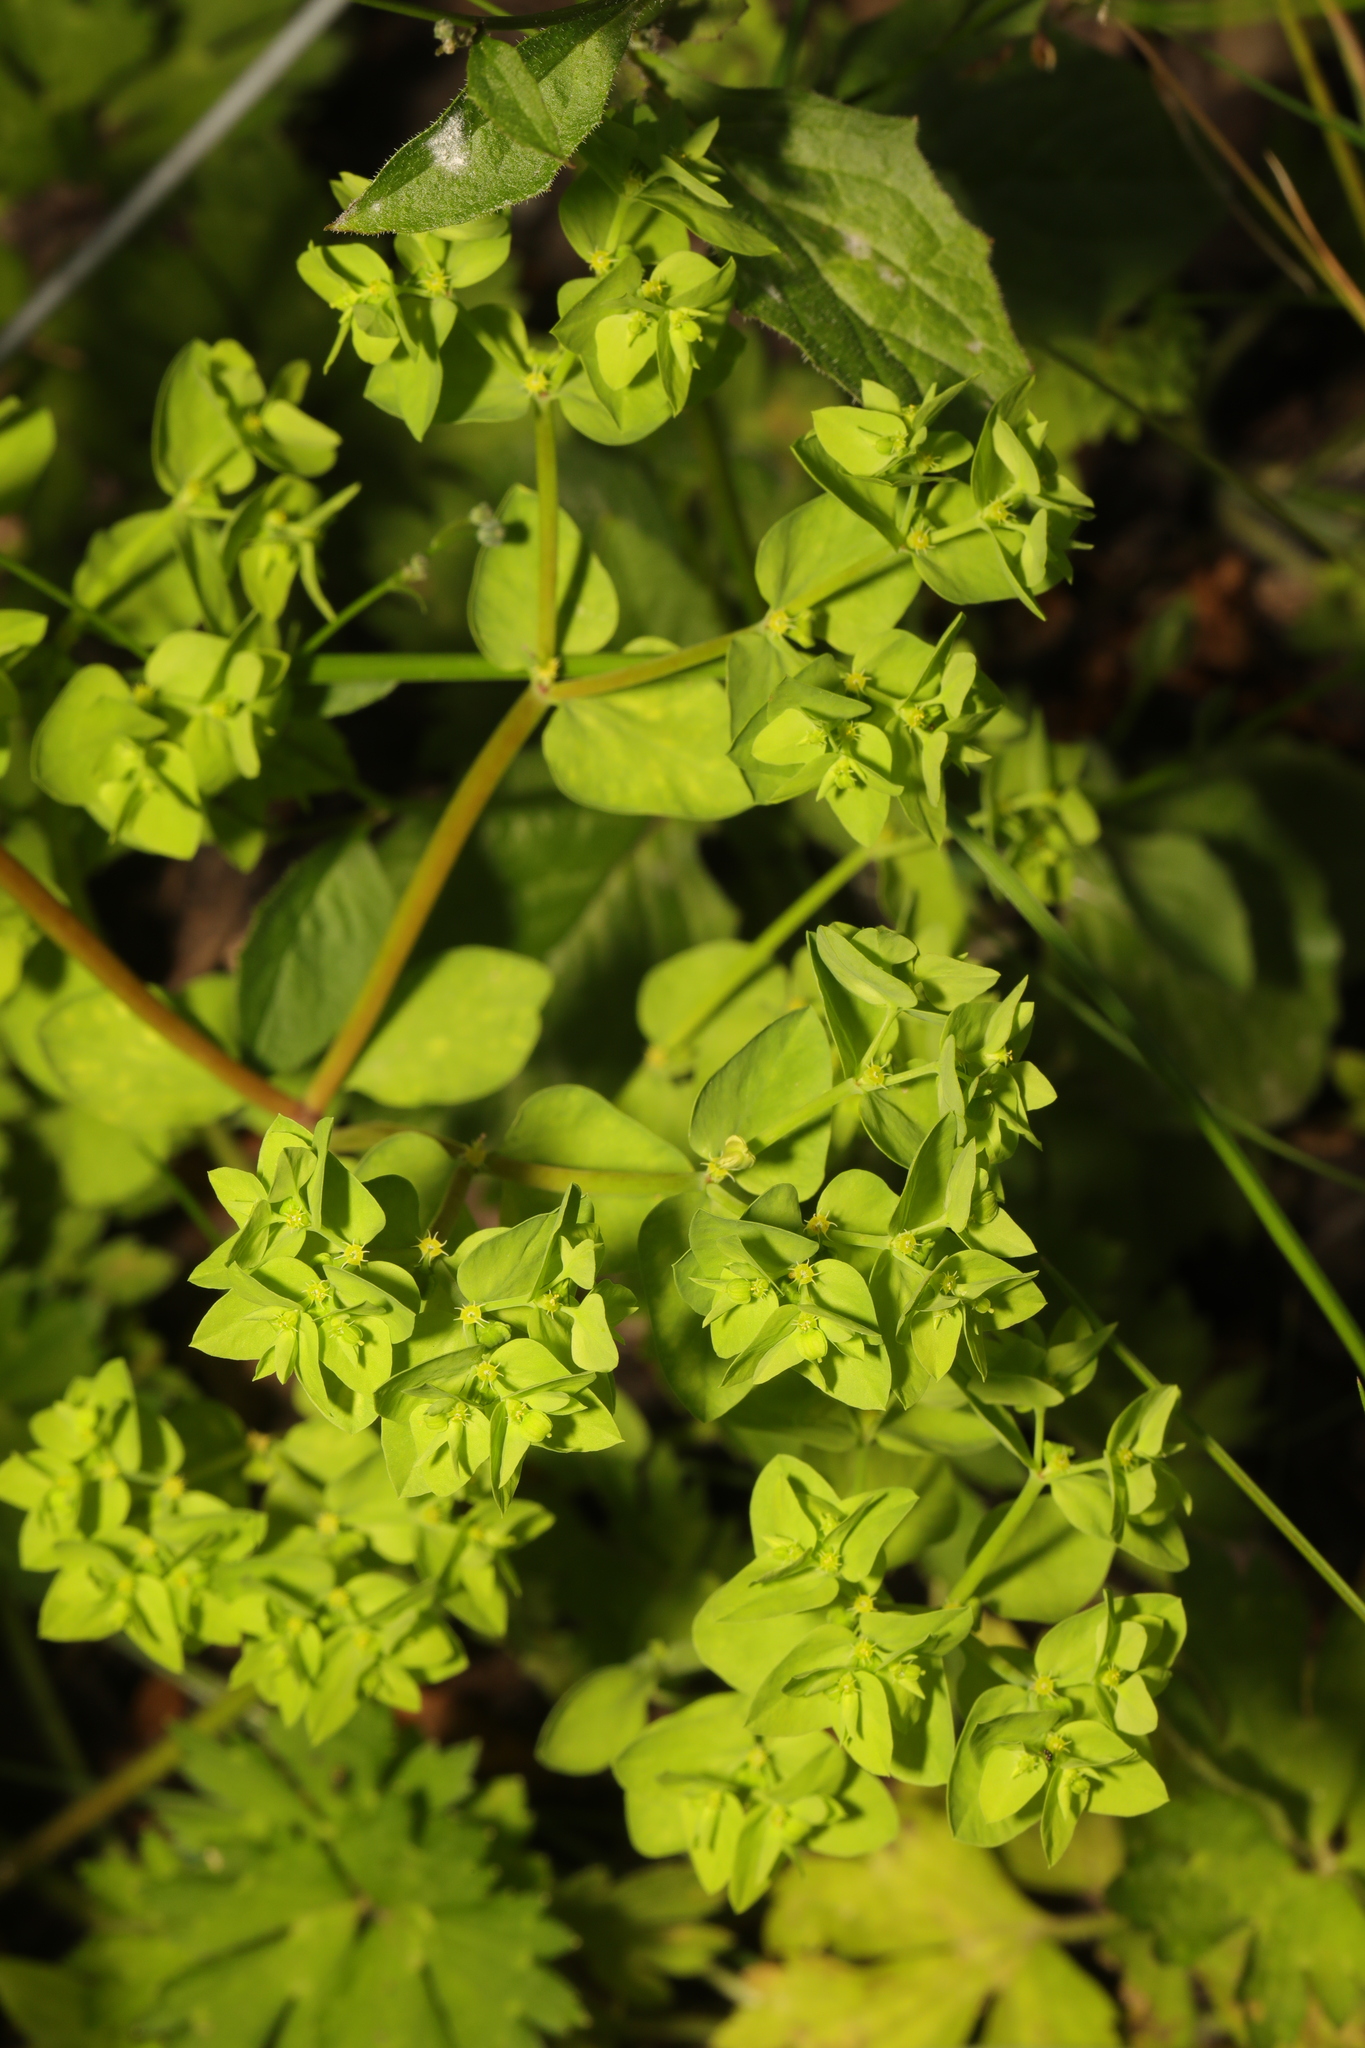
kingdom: Plantae
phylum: Tracheophyta
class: Magnoliopsida
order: Malpighiales
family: Euphorbiaceae
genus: Euphorbia
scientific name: Euphorbia peplus
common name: Petty spurge
